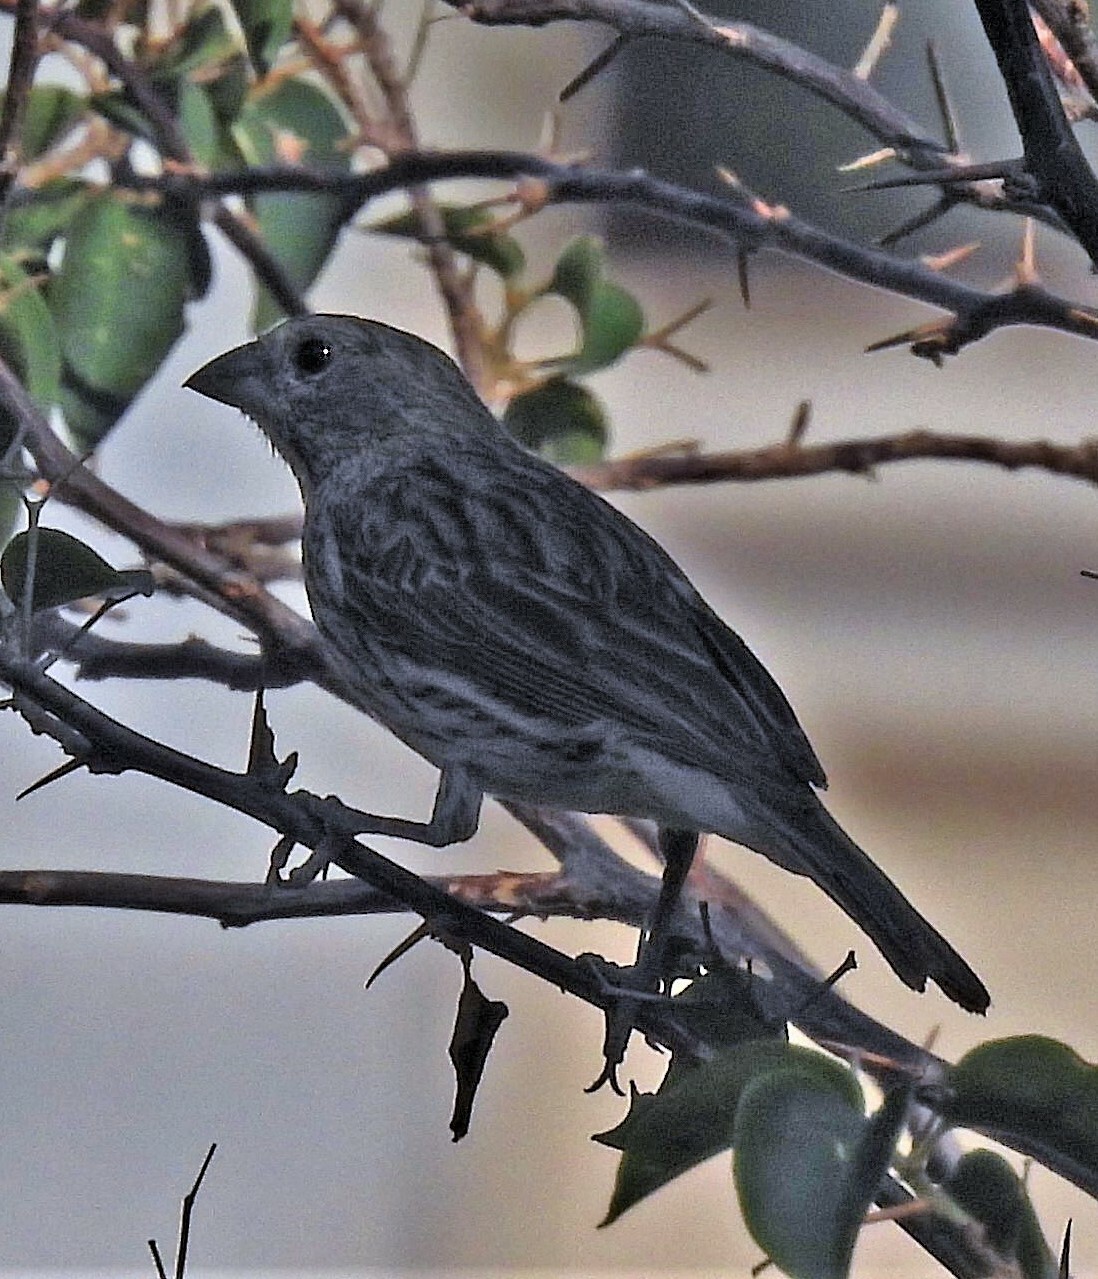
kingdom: Animalia
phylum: Chordata
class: Aves
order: Passeriformes
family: Thraupidae
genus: Sicalis
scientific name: Sicalis flaveola
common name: Saffron finch
